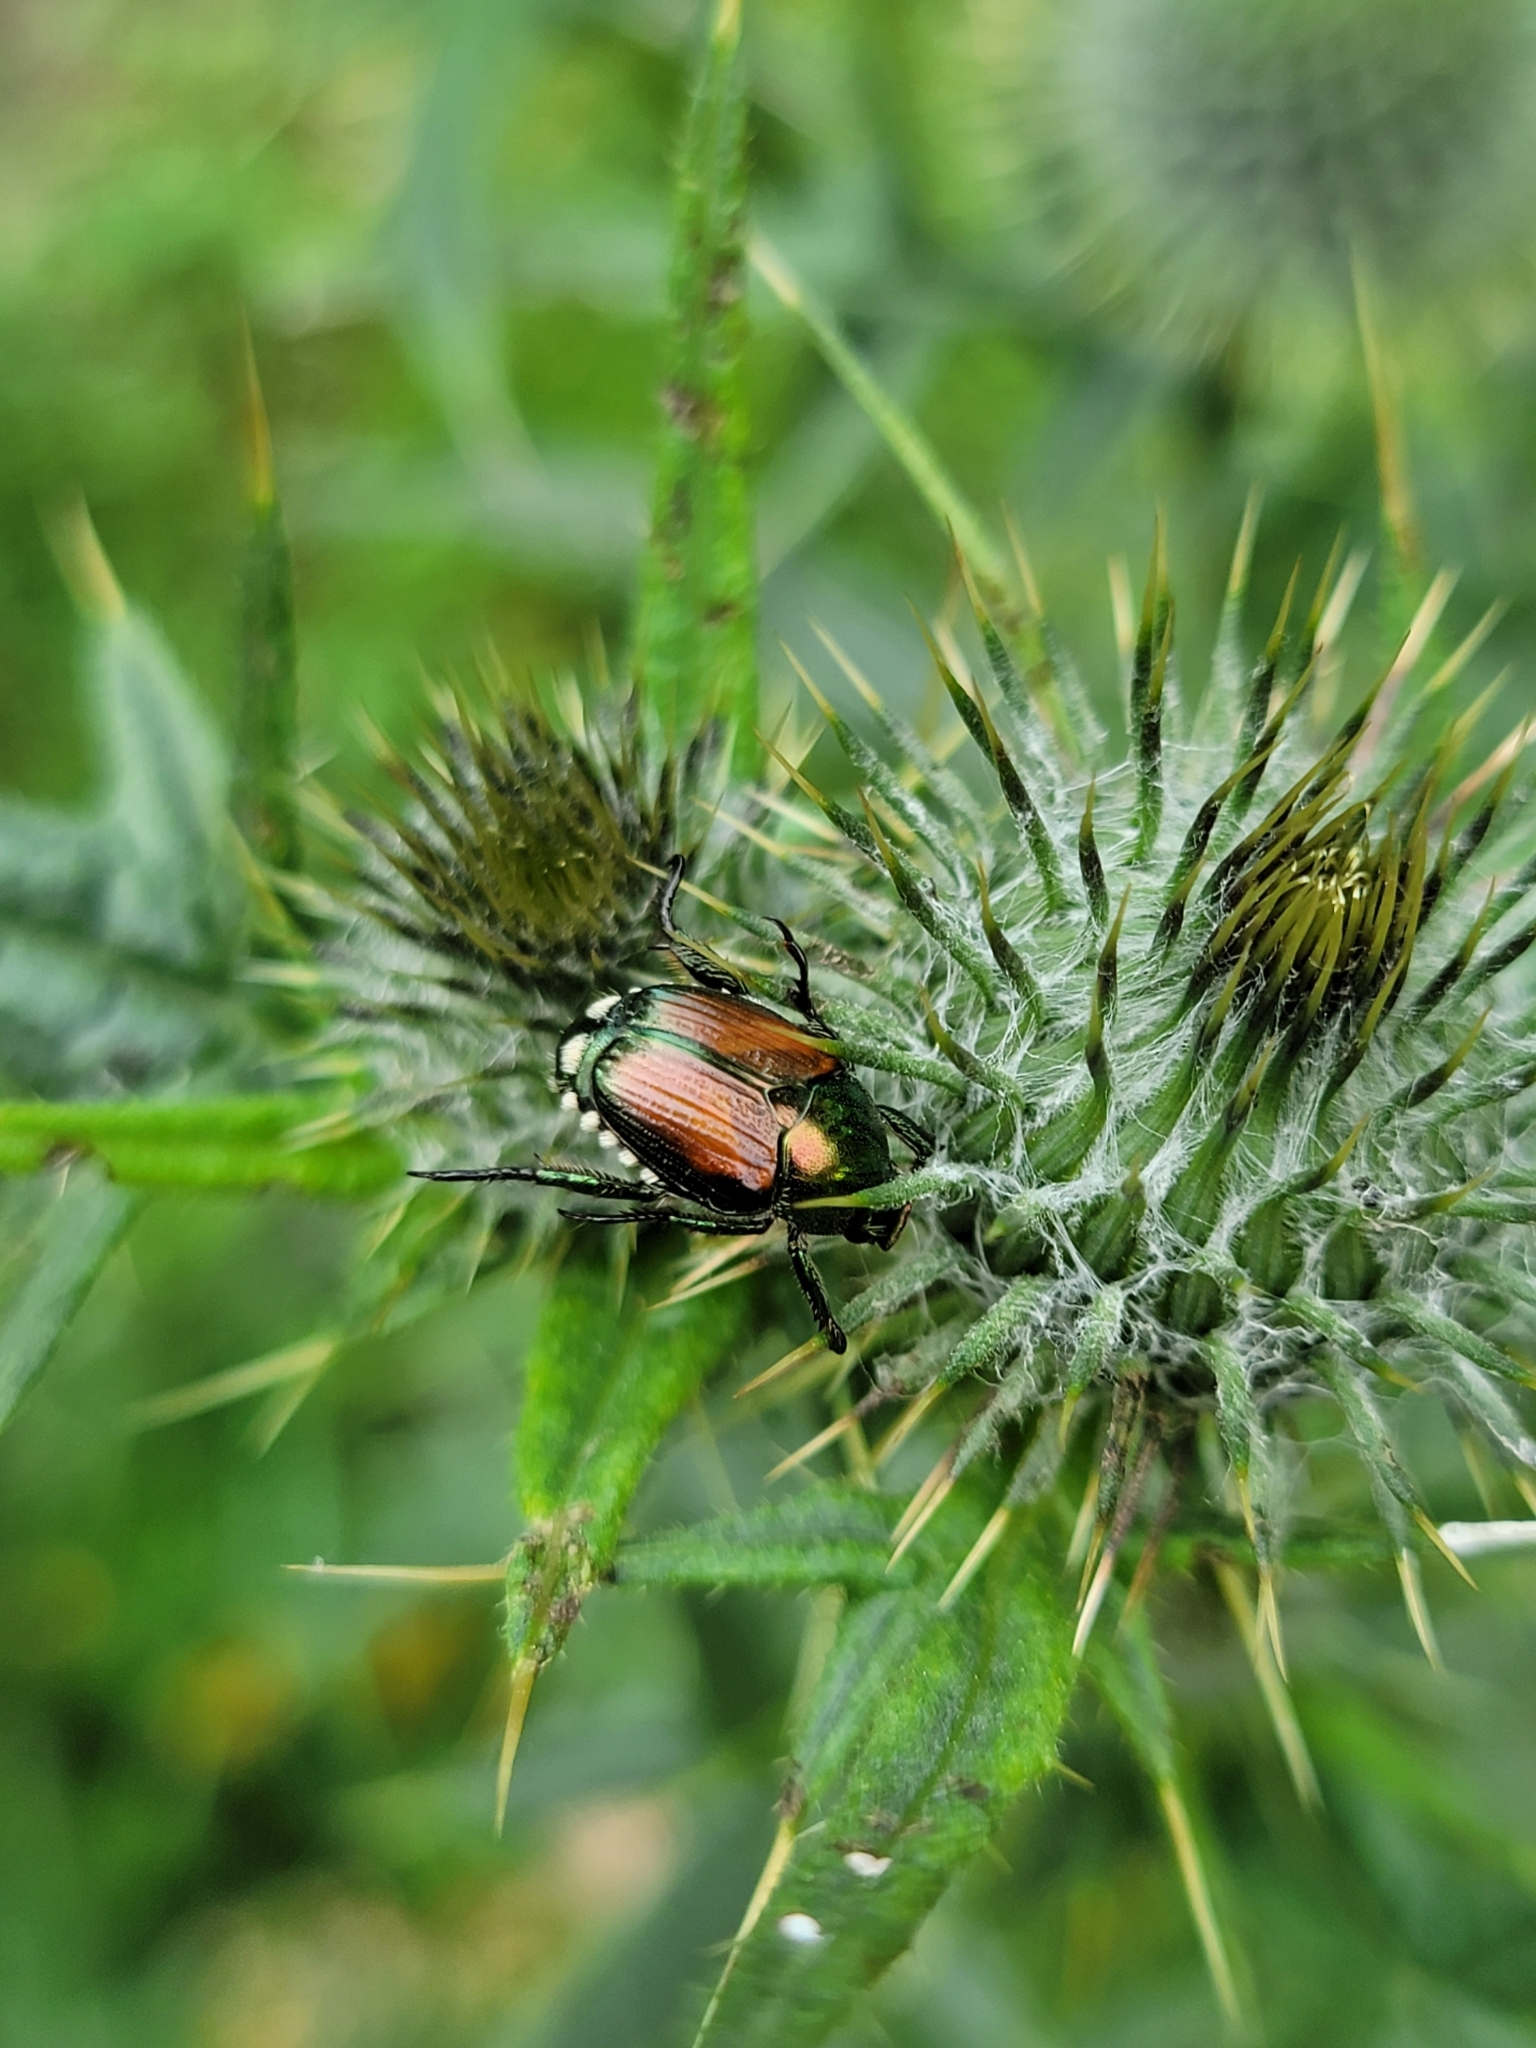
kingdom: Animalia
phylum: Arthropoda
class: Insecta
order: Coleoptera
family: Scarabaeidae
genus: Popillia
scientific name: Popillia japonica
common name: Japanese beetle
